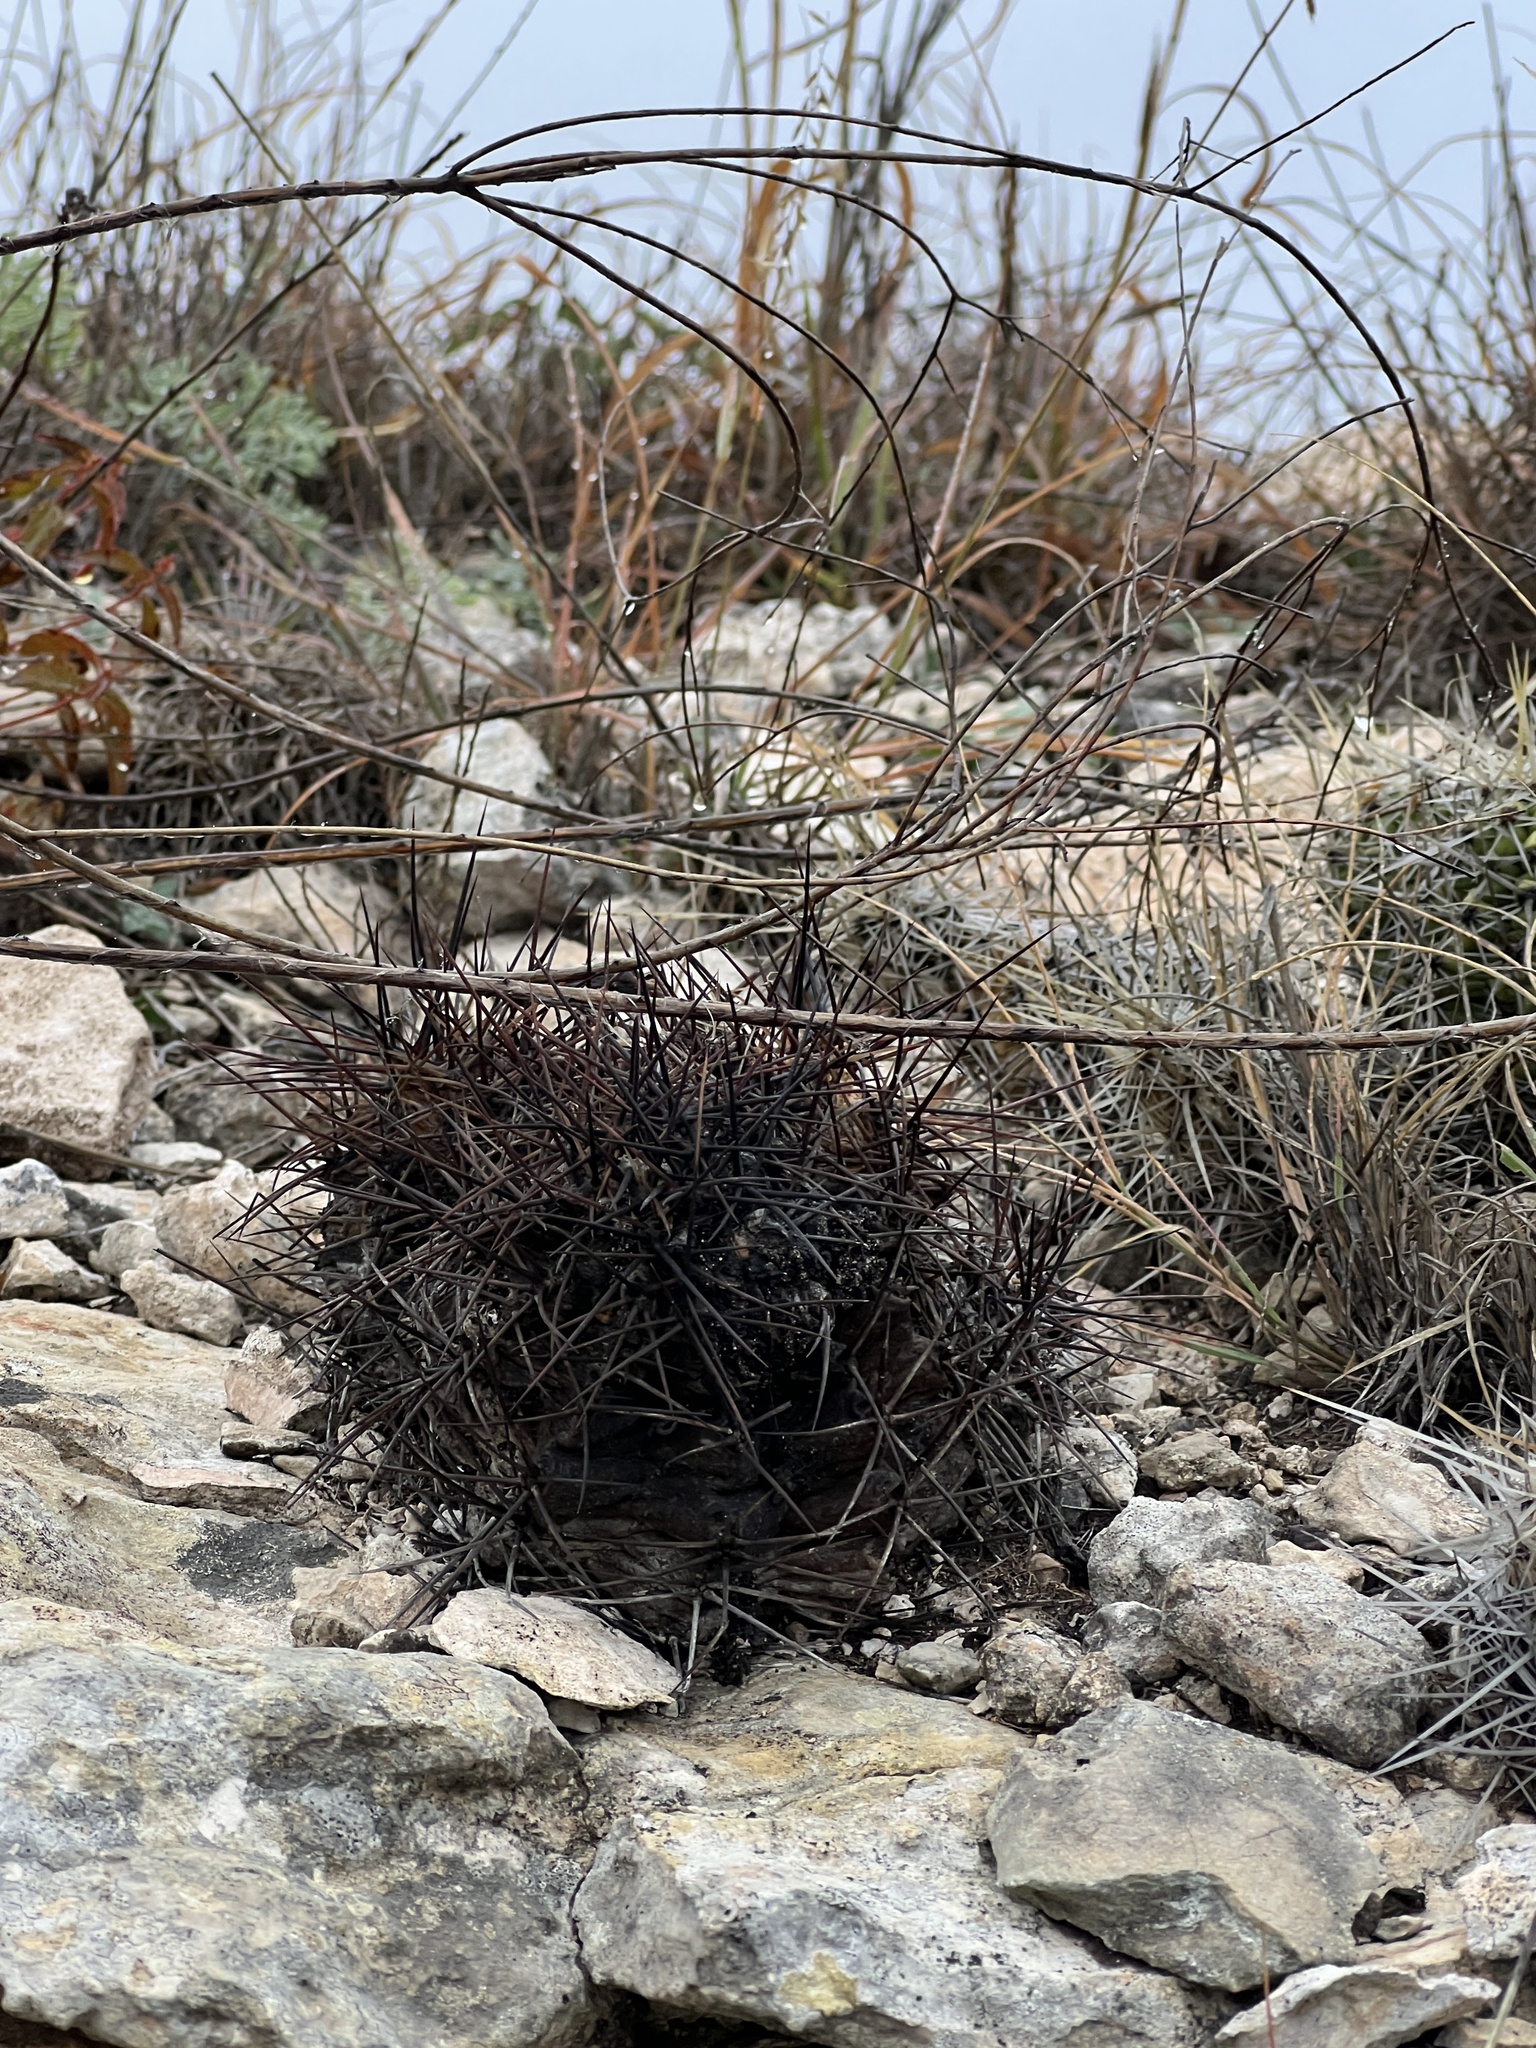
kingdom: Plantae
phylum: Tracheophyta
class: Magnoliopsida
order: Caryophyllales
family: Cactaceae
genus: Echinocereus
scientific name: Echinocereus coccineus
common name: Scarlet hedgehog cactus
